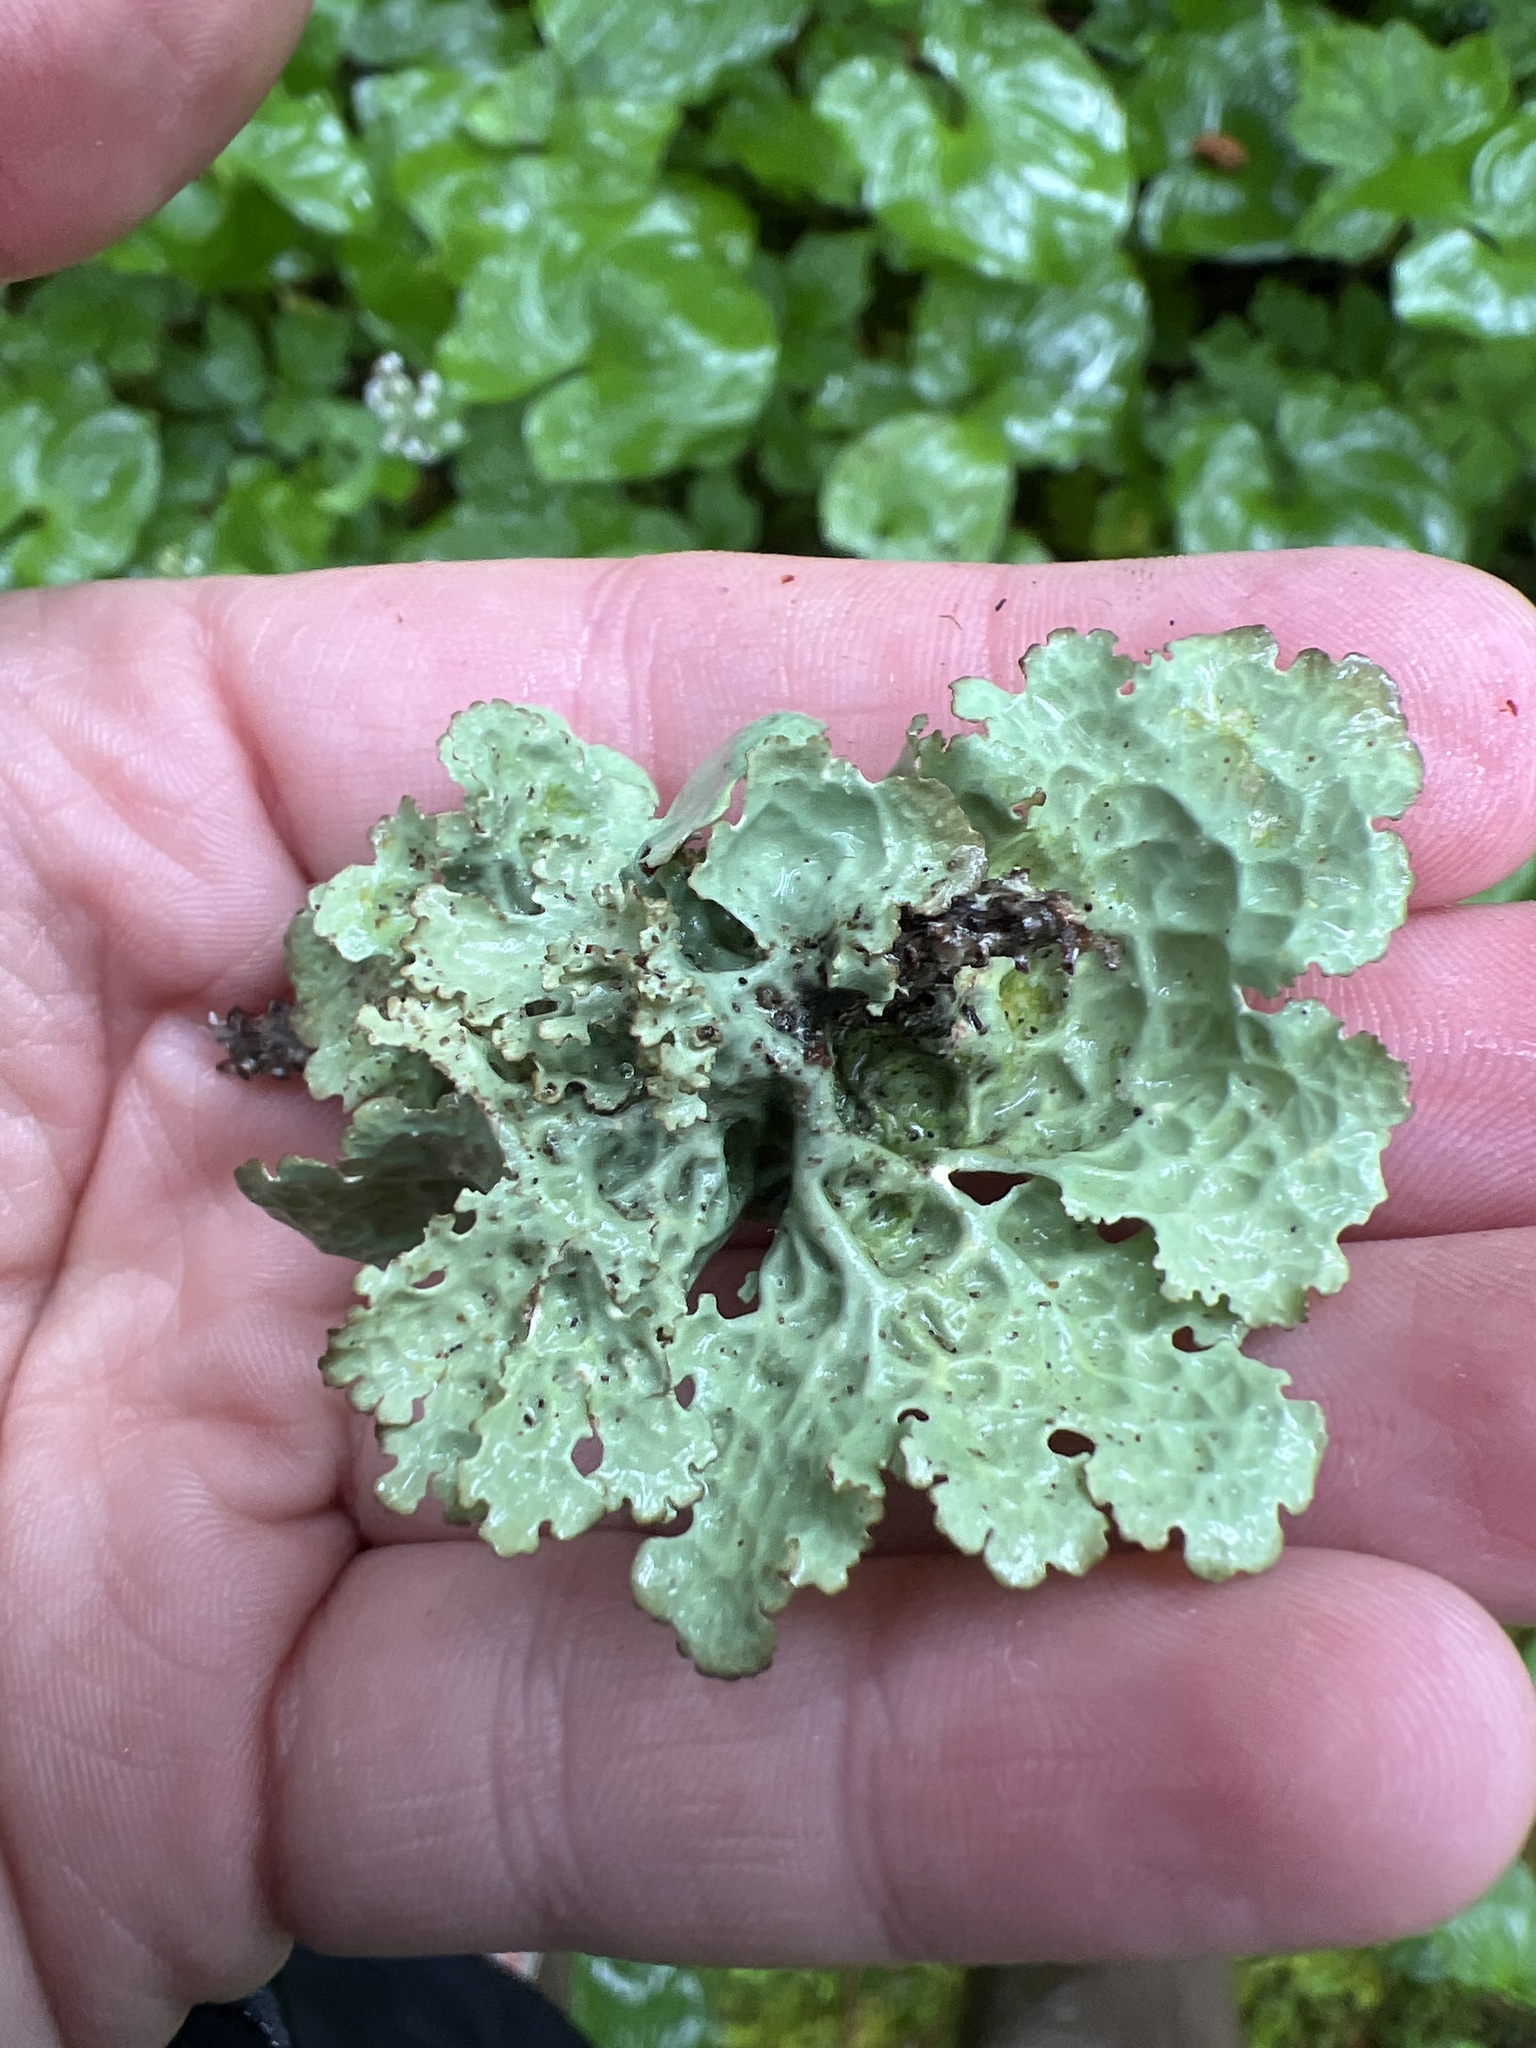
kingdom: Fungi
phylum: Ascomycota
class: Lecanoromycetes
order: Peltigerales
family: Lobariaceae
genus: Lobaria
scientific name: Lobaria oregana
